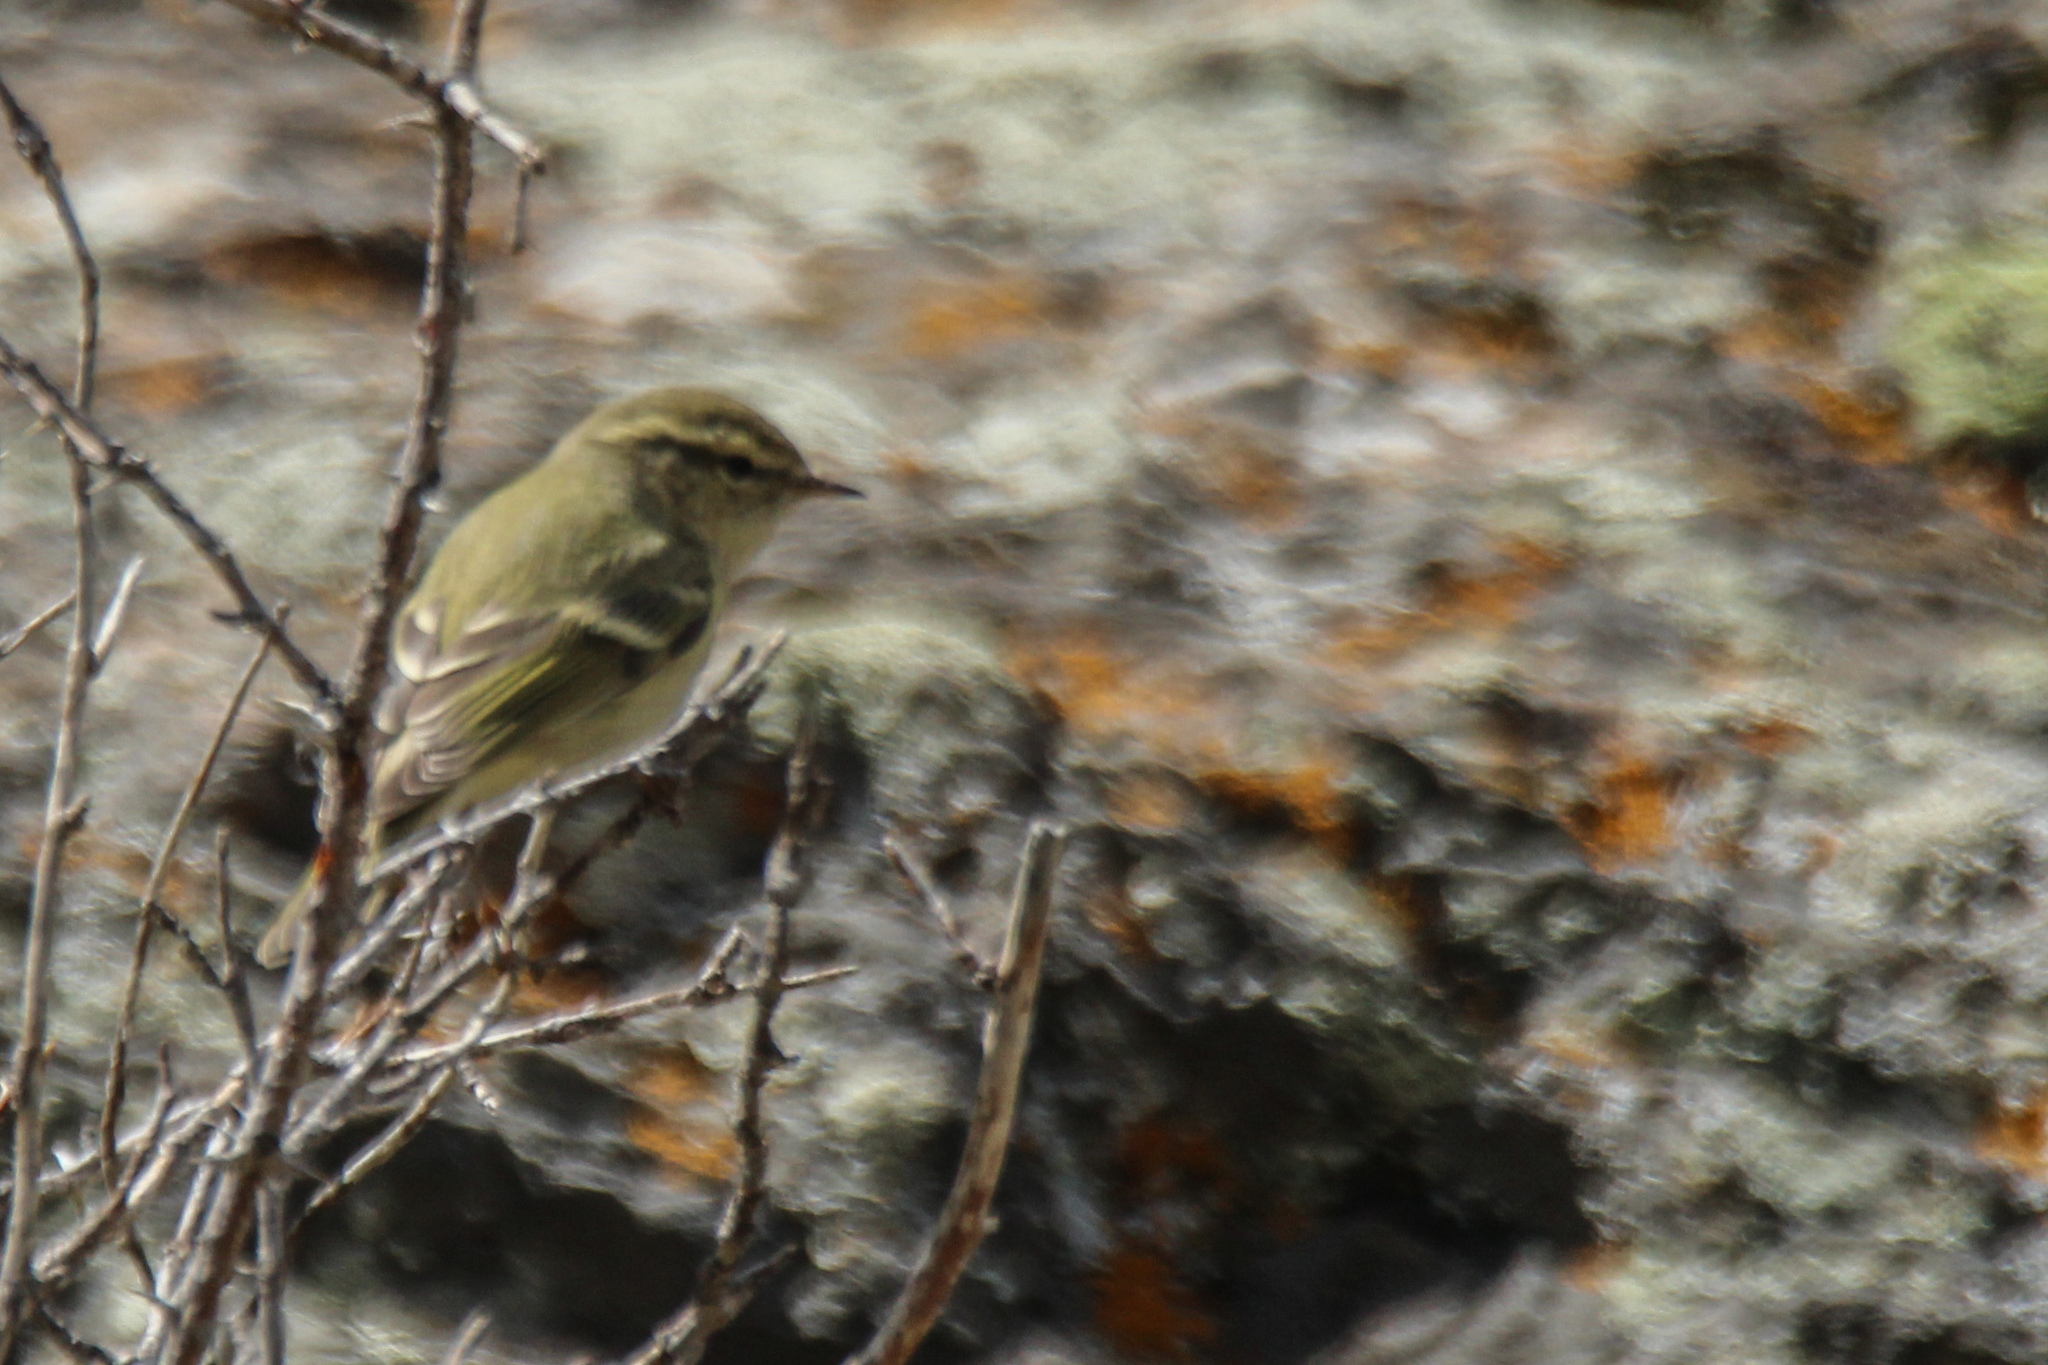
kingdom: Animalia
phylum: Chordata
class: Aves
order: Passeriformes
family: Phylloscopidae
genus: Phylloscopus
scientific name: Phylloscopus humei
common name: Hume's leaf warbler
